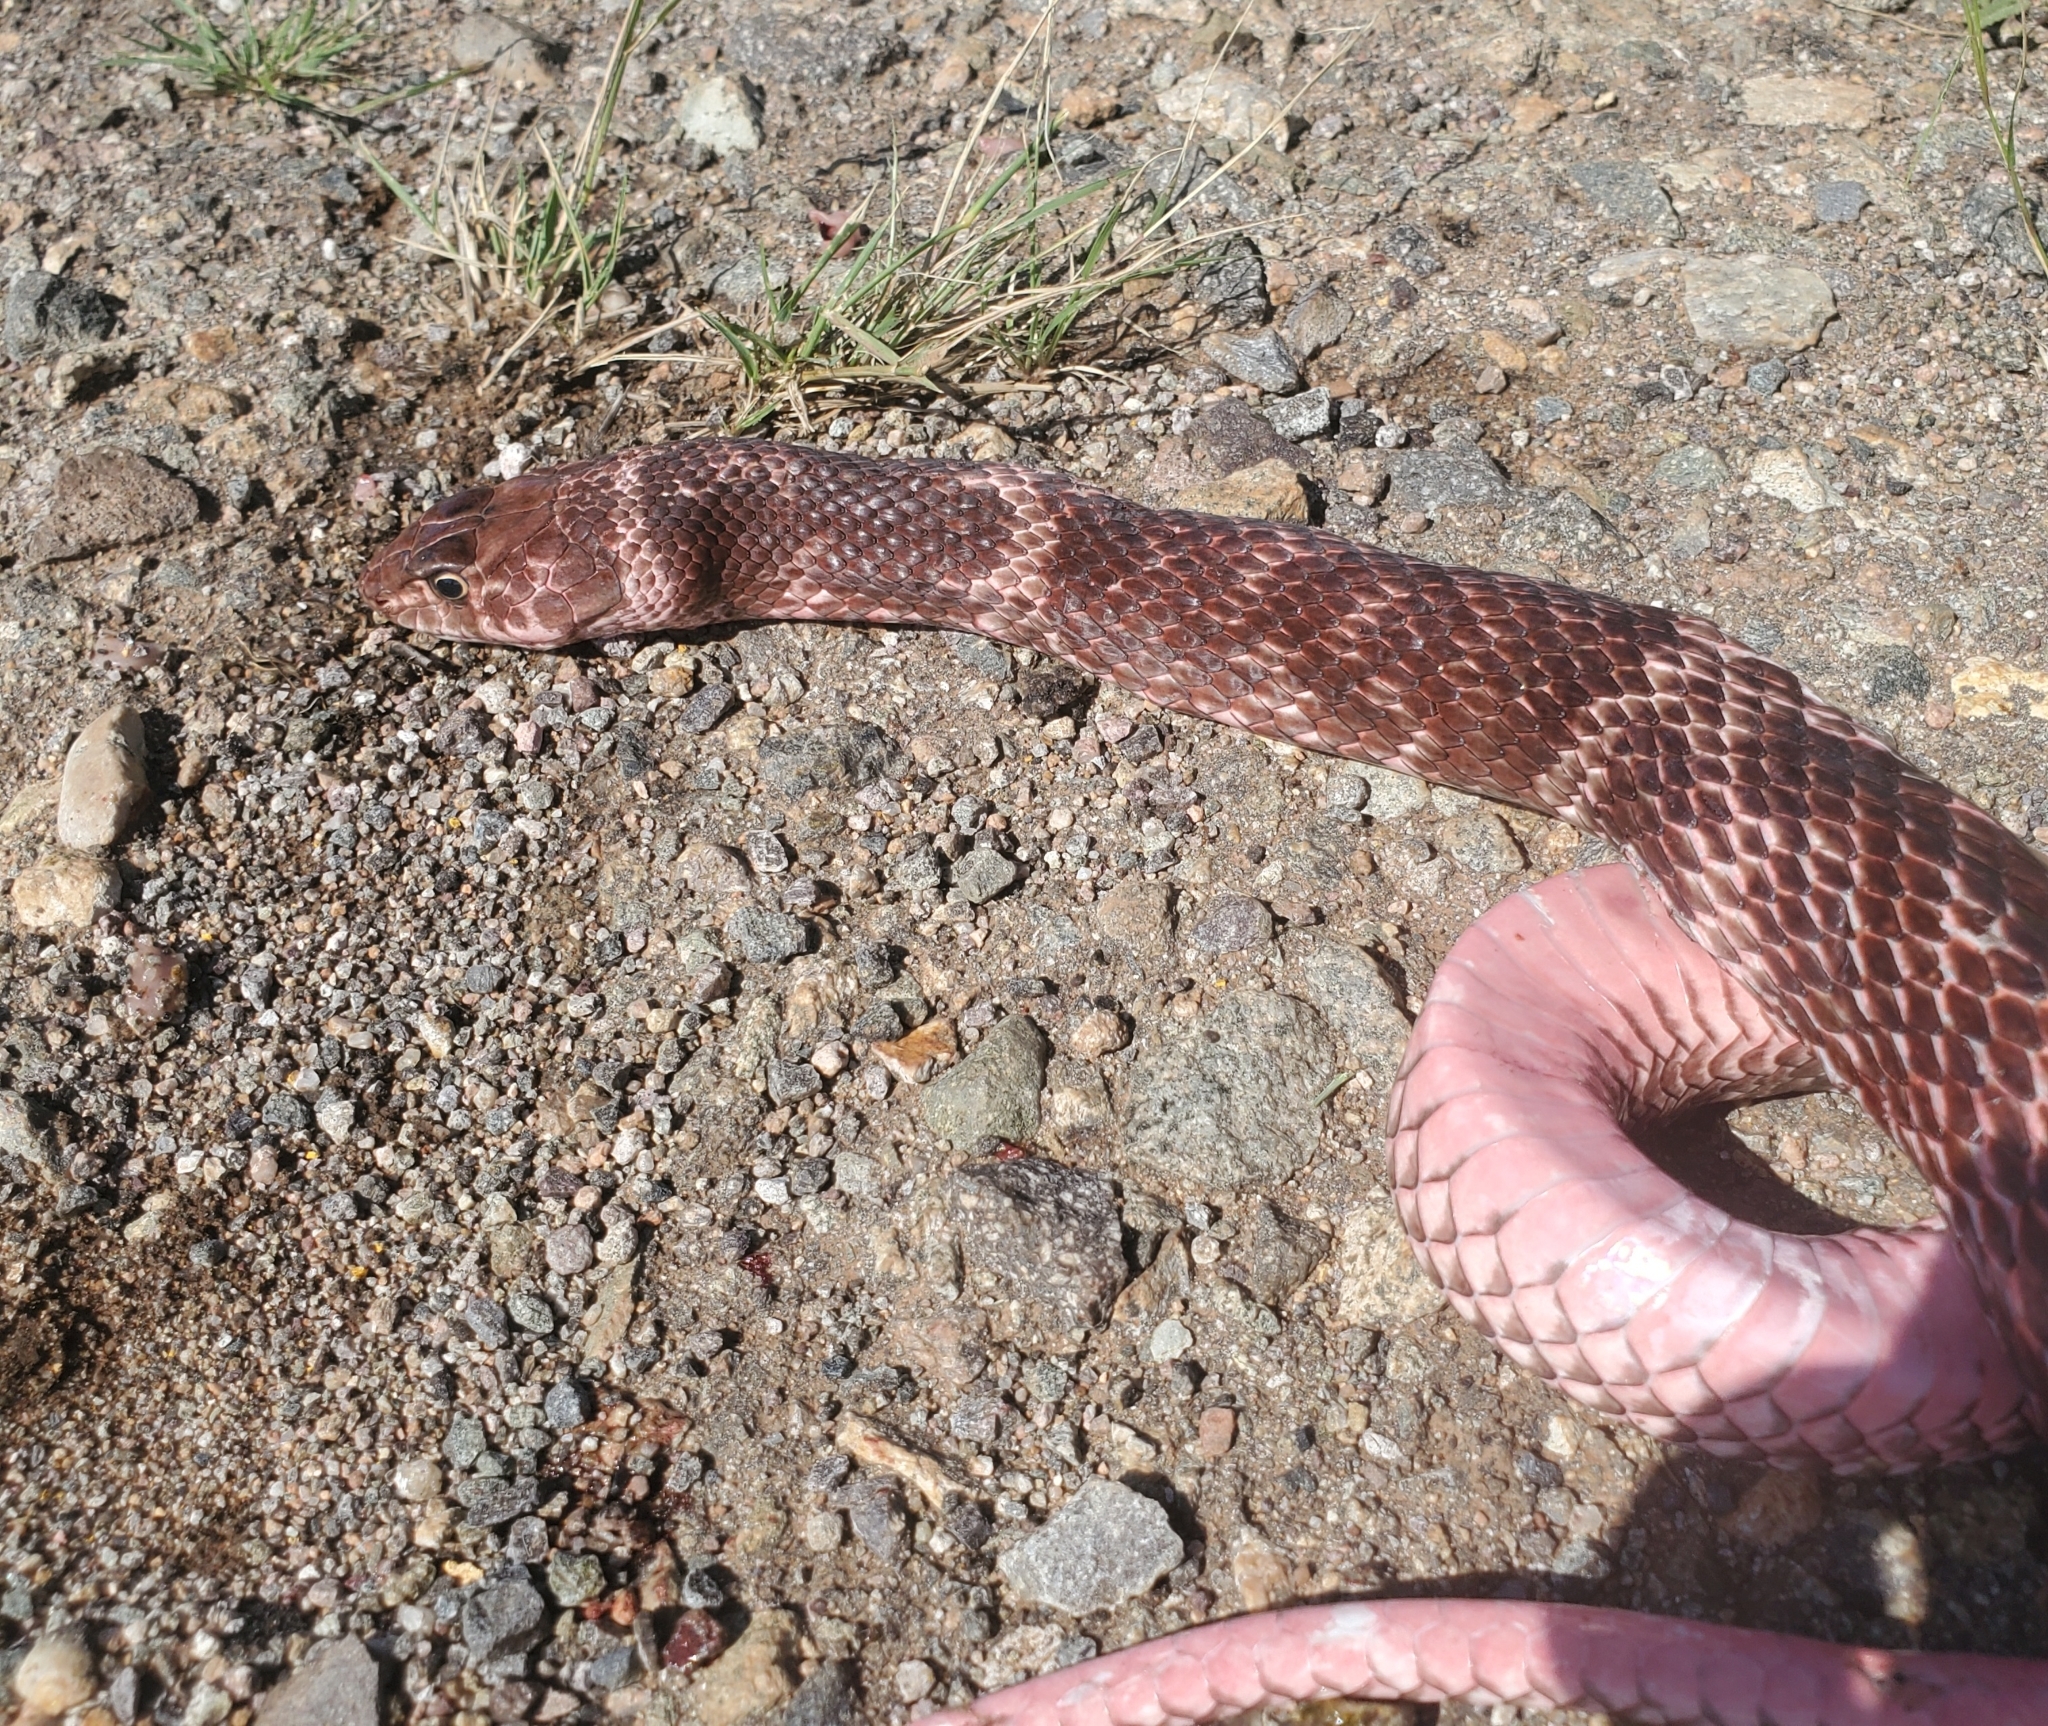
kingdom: Animalia
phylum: Chordata
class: Squamata
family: Colubridae
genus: Masticophis
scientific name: Masticophis flagellum
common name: Coachwhip
